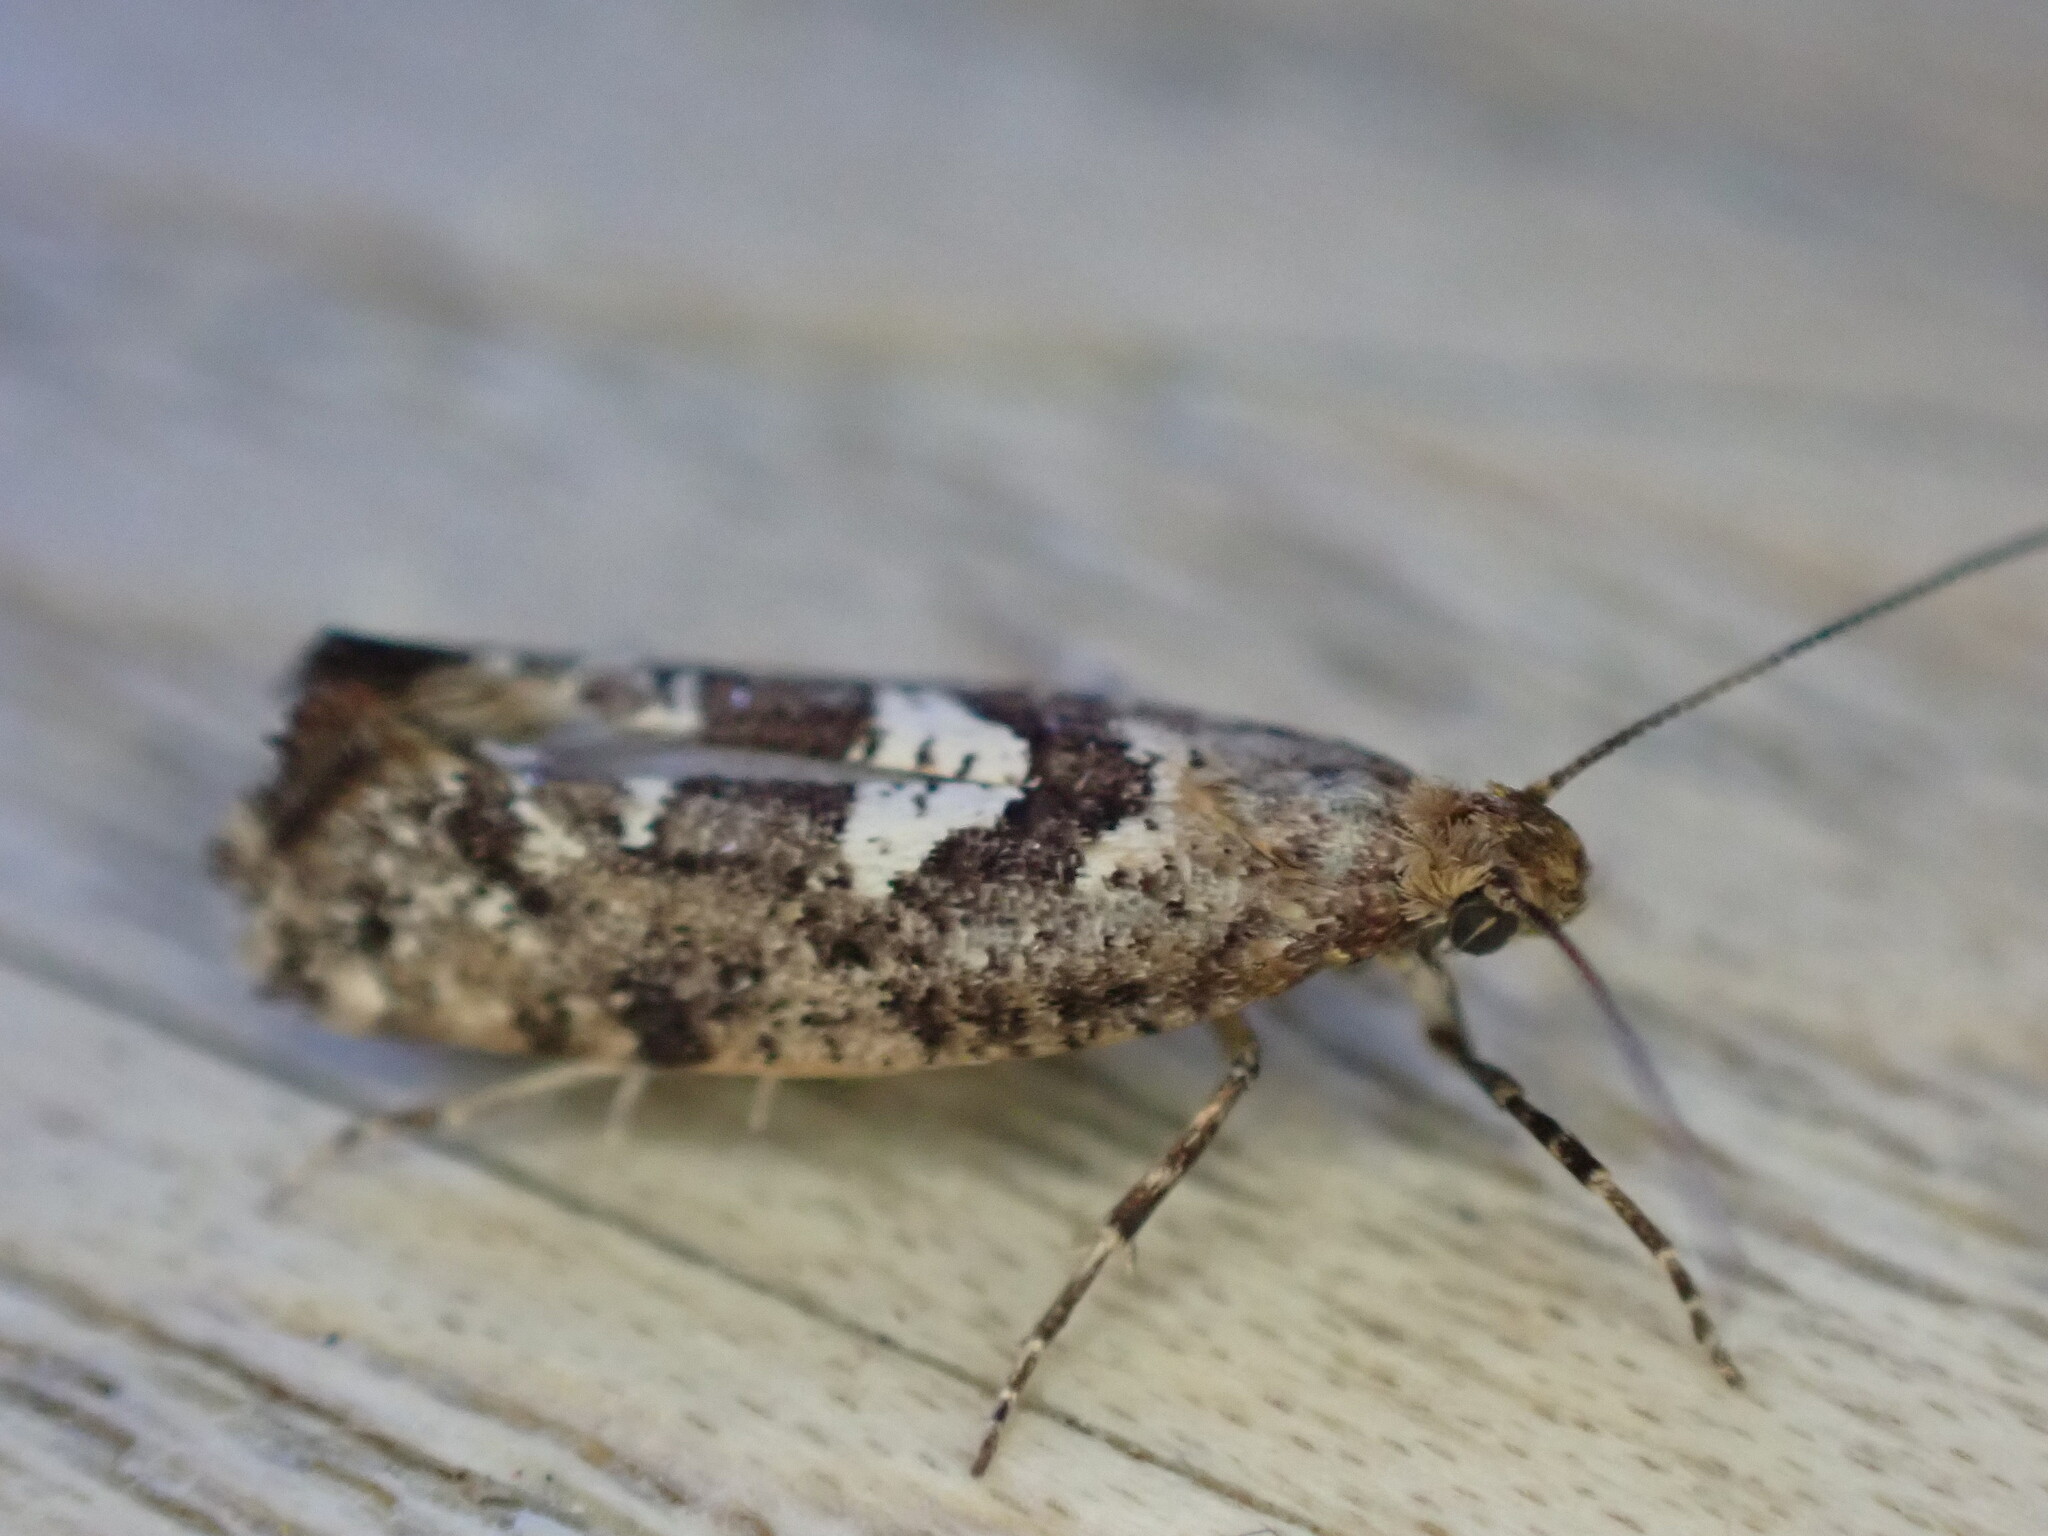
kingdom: Animalia
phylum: Arthropoda
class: Insecta
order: Lepidoptera
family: Glyphipterigidae
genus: Acrolepia
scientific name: Acrolepia assectella
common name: Onion leaf miner
